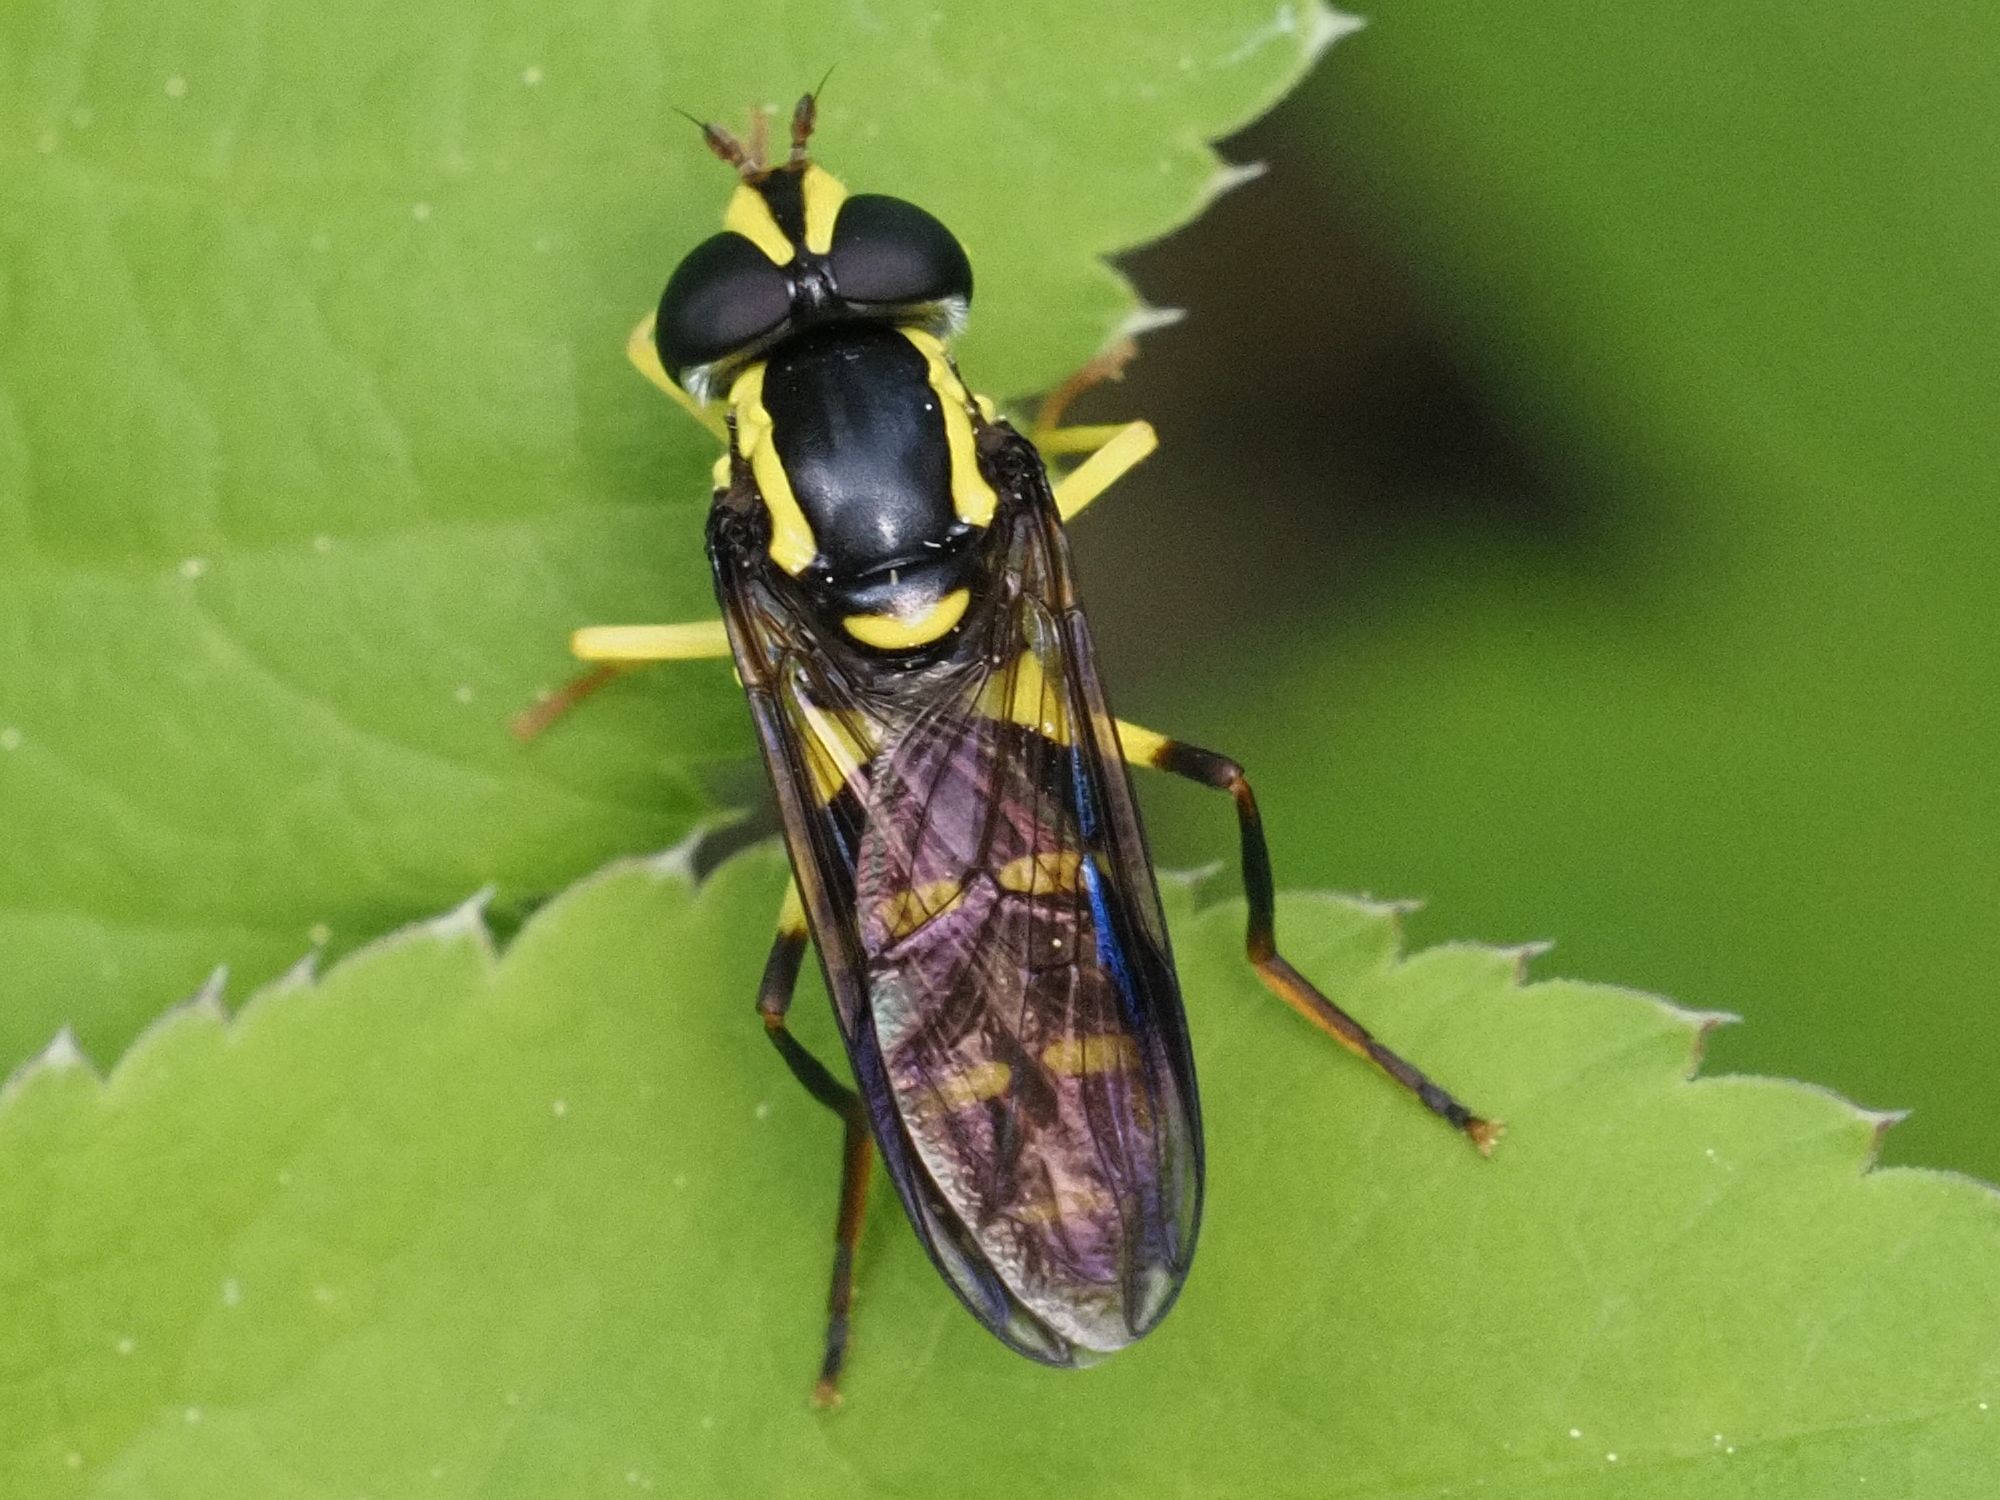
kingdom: Animalia
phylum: Arthropoda
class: Insecta
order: Diptera
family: Syrphidae
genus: Philhelius
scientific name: Philhelius dives
